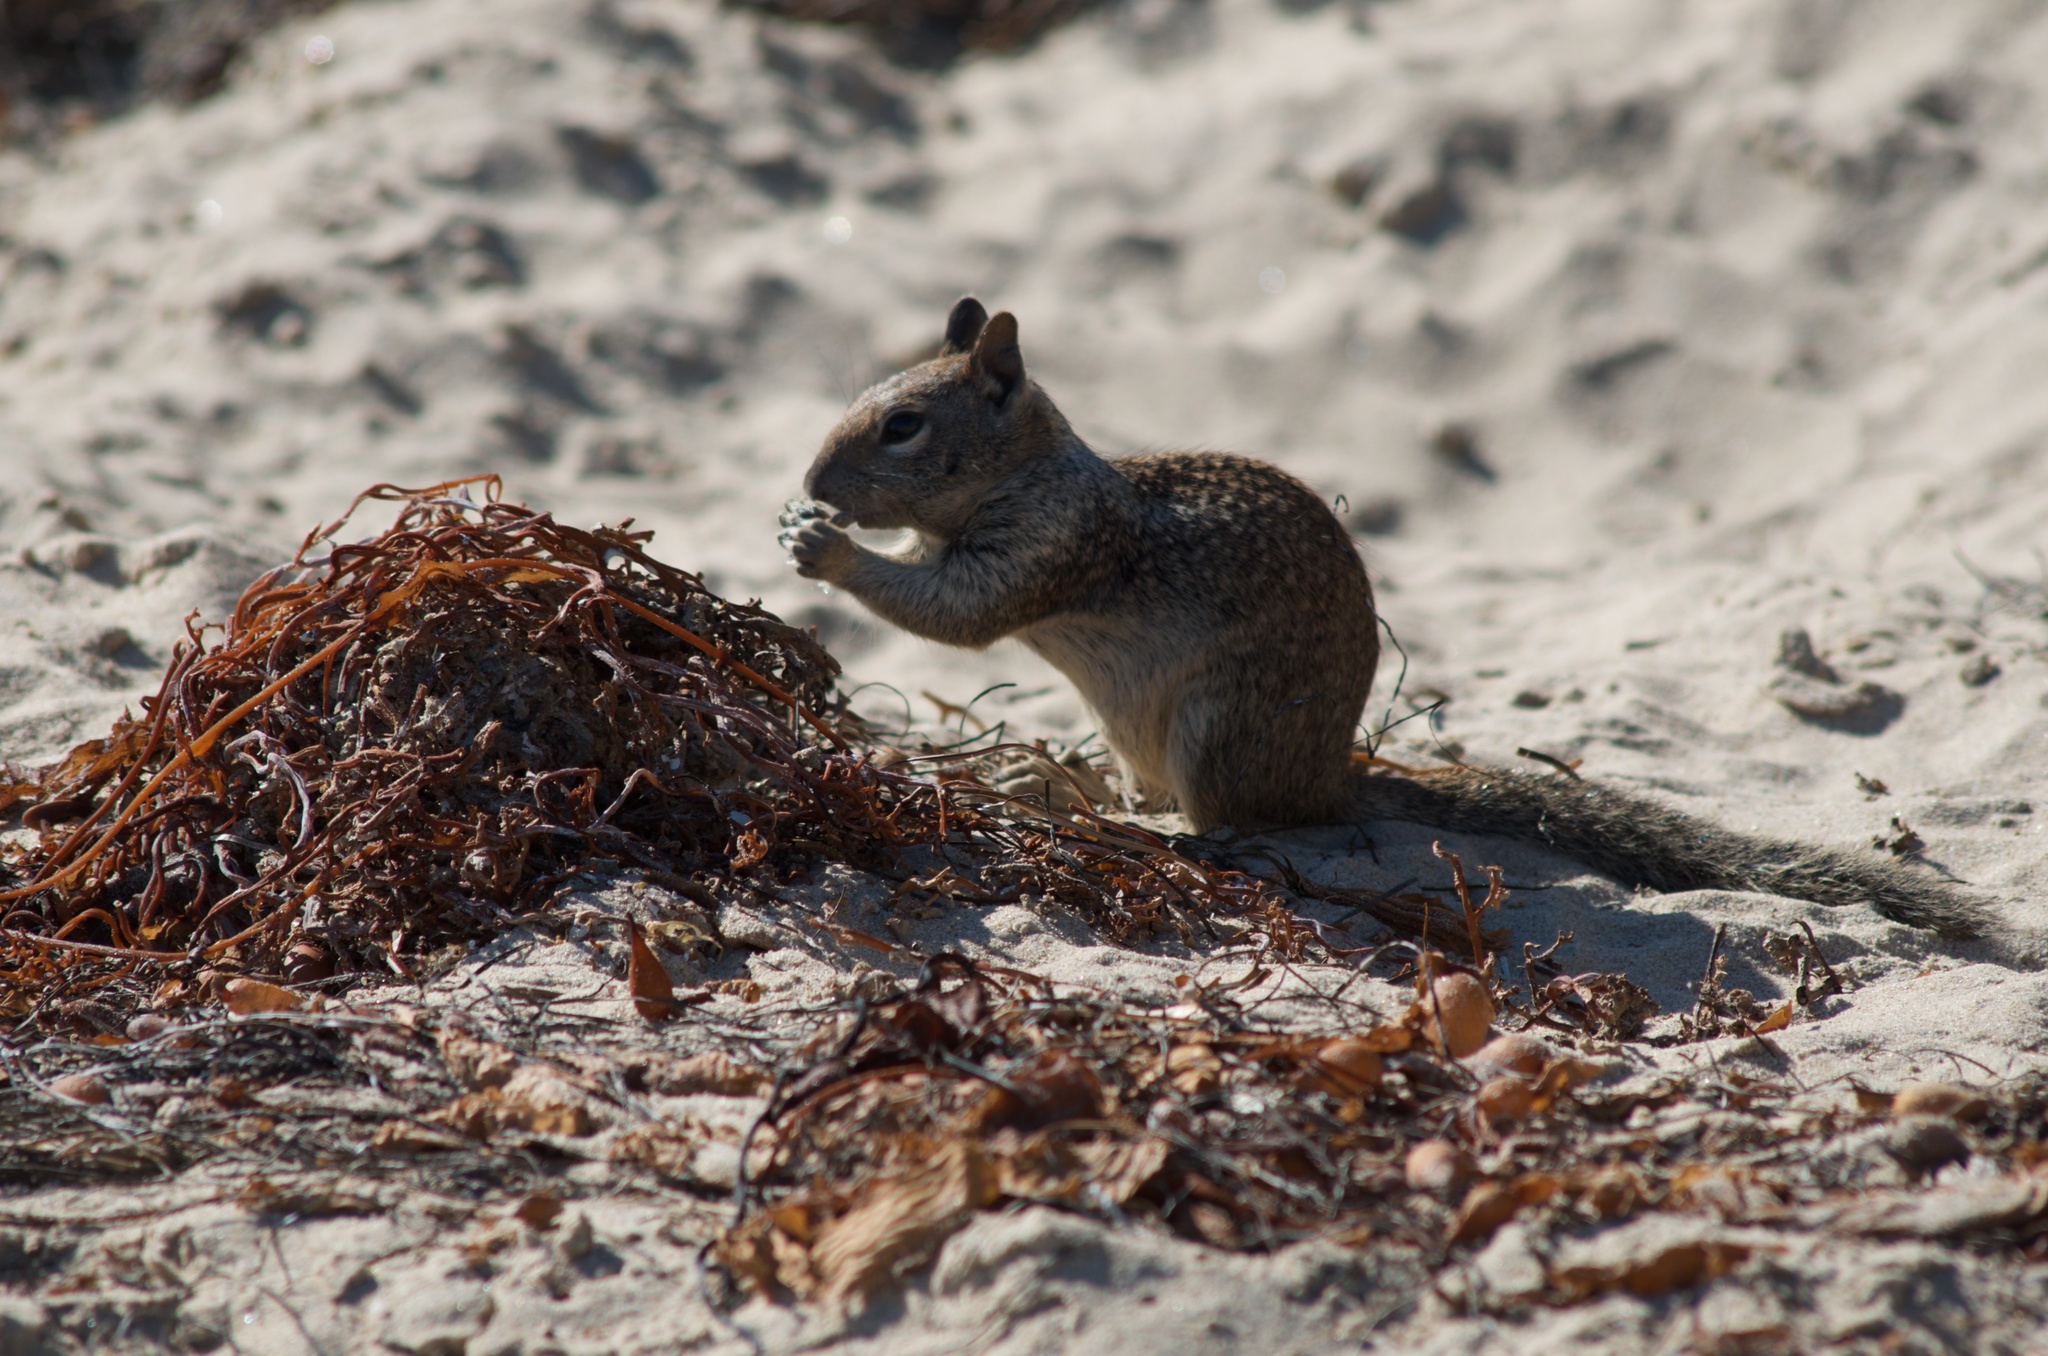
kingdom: Animalia
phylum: Chordata
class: Mammalia
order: Rodentia
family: Sciuridae
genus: Otospermophilus
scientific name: Otospermophilus beecheyi
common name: California ground squirrel
